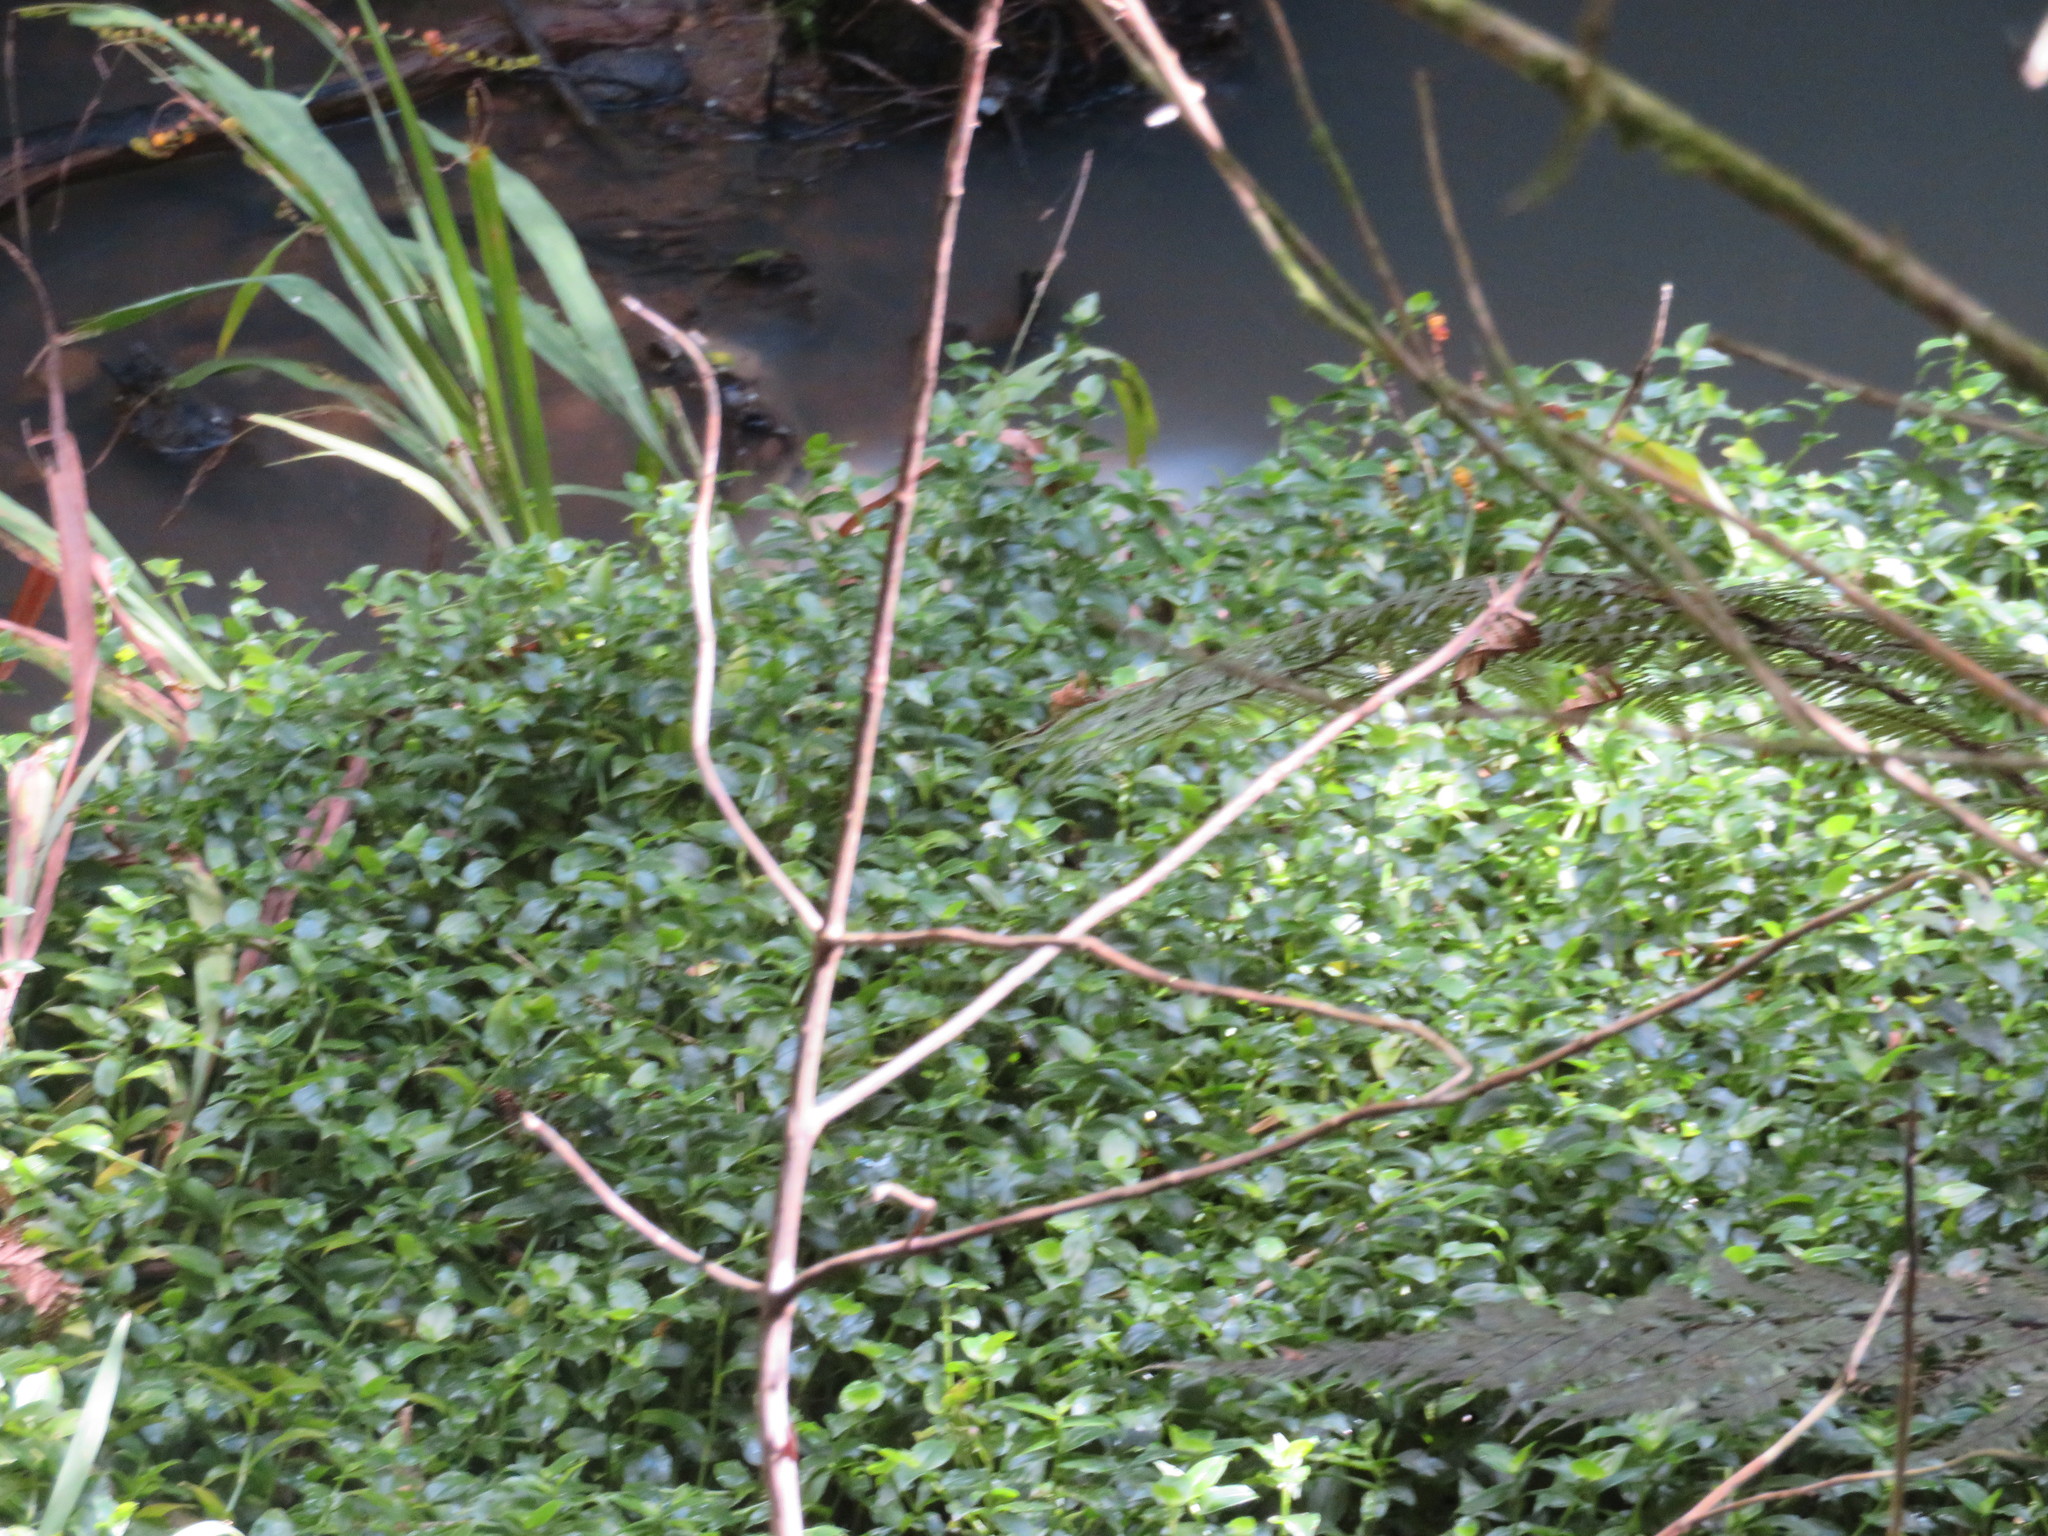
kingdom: Plantae
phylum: Tracheophyta
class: Liliopsida
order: Asparagales
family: Iridaceae
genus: Crocosmia
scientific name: Crocosmia crocosmiiflora
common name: Montbretia
